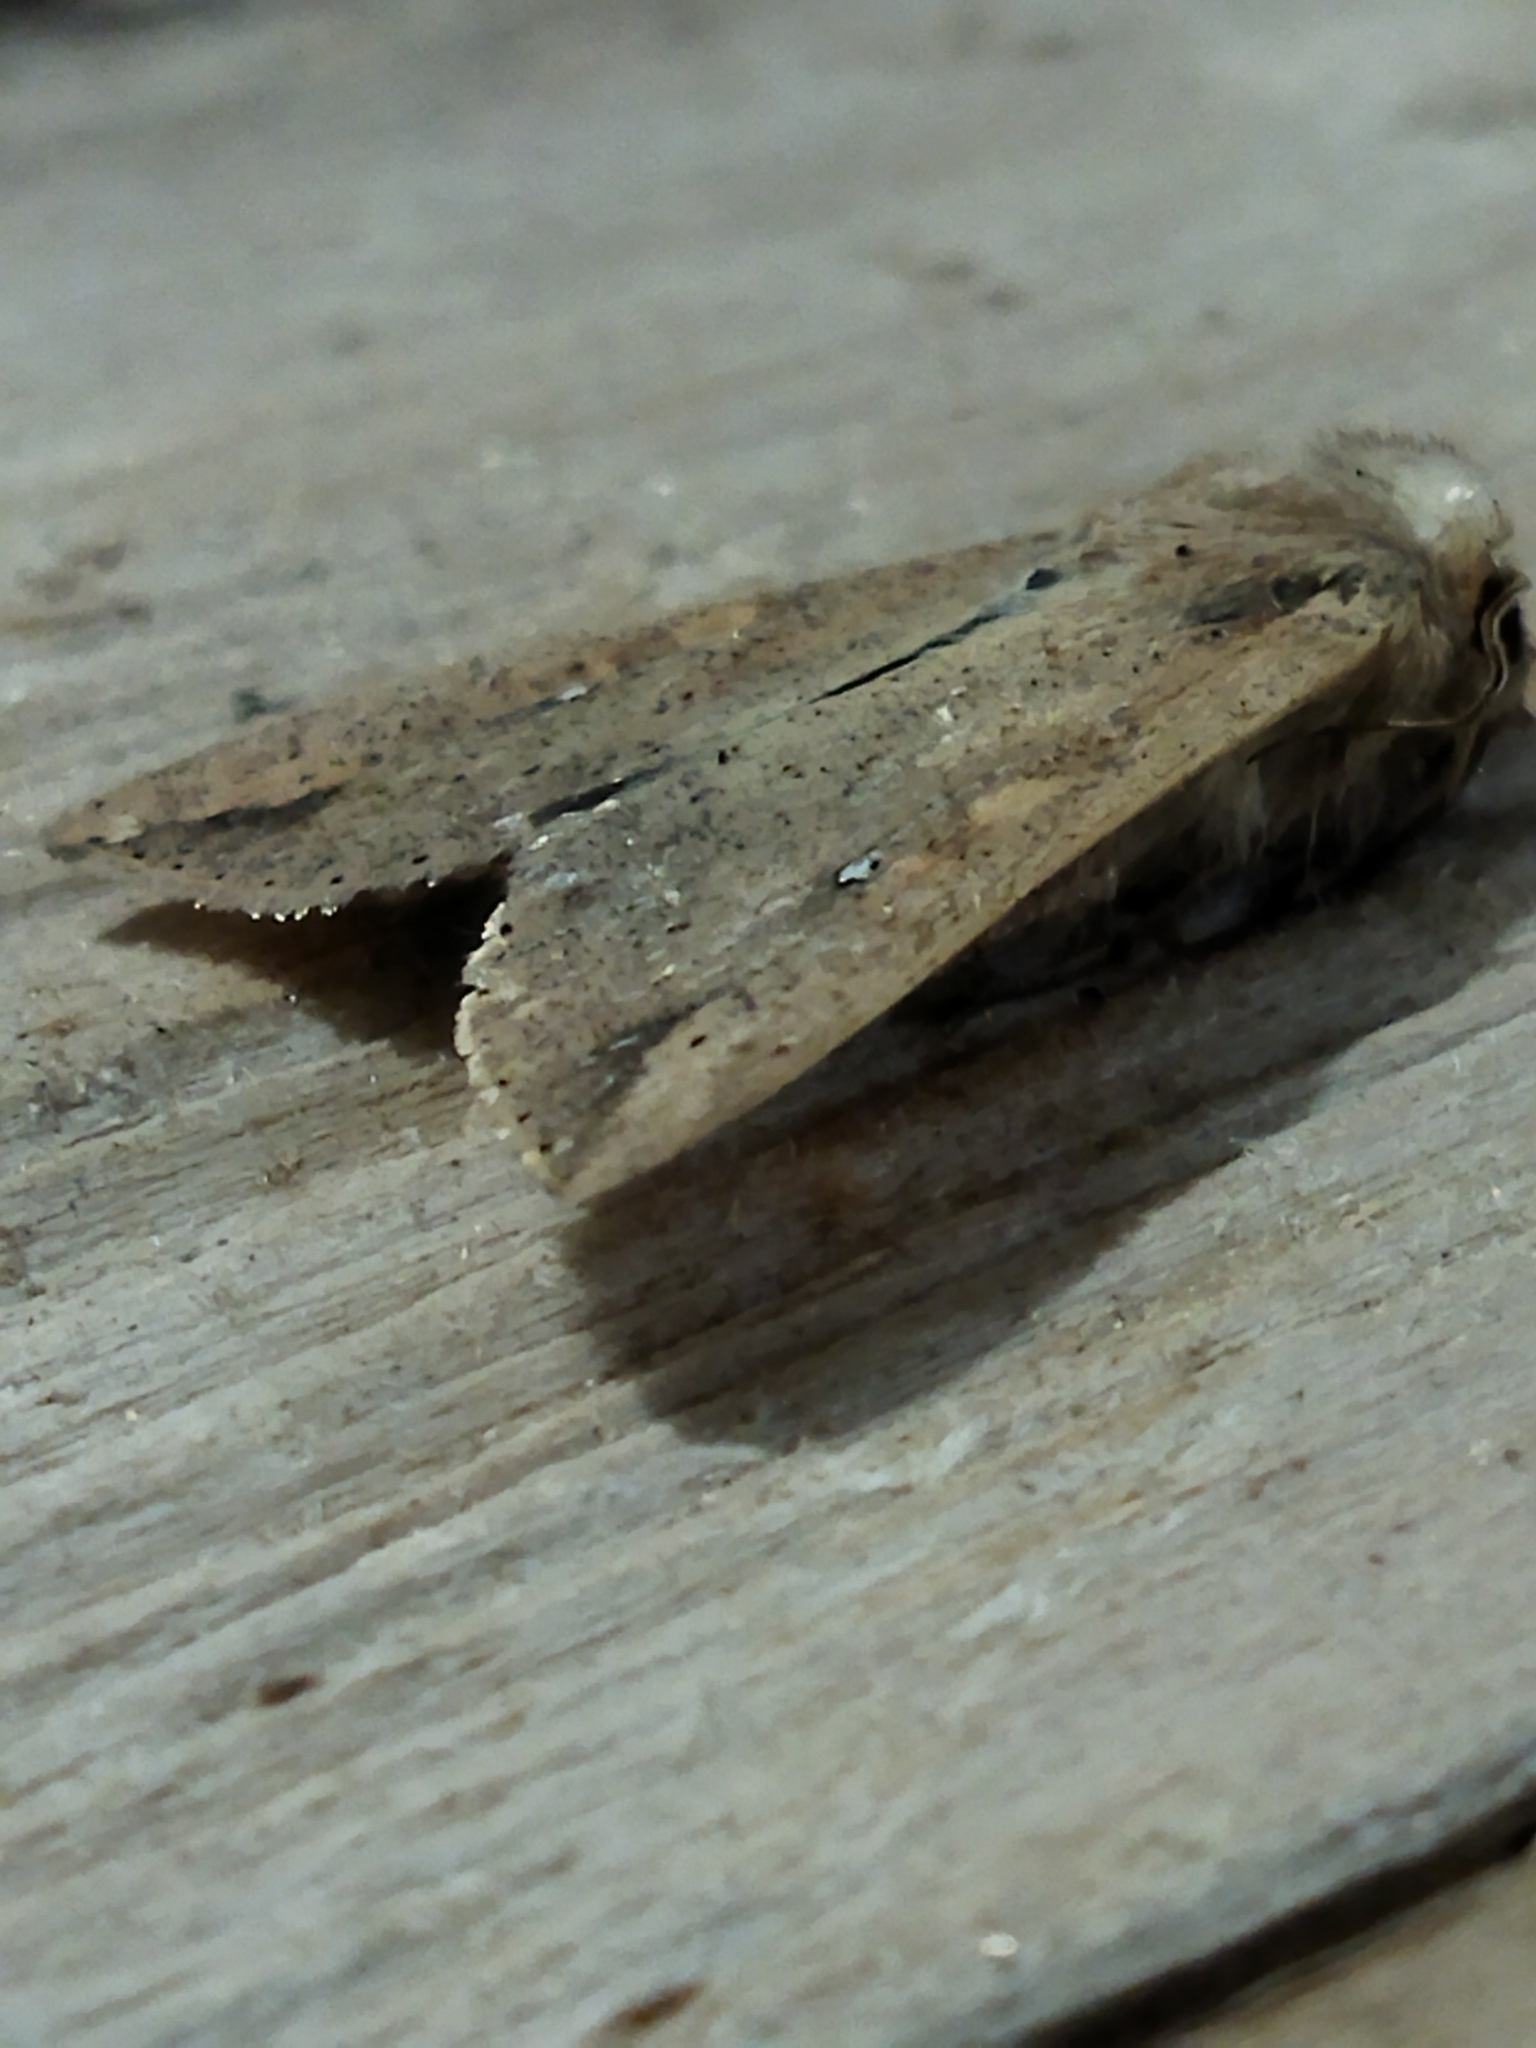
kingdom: Animalia
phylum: Arthropoda
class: Insecta
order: Lepidoptera
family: Noctuidae
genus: Mythimna
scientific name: Mythimna unipuncta
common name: White-speck
